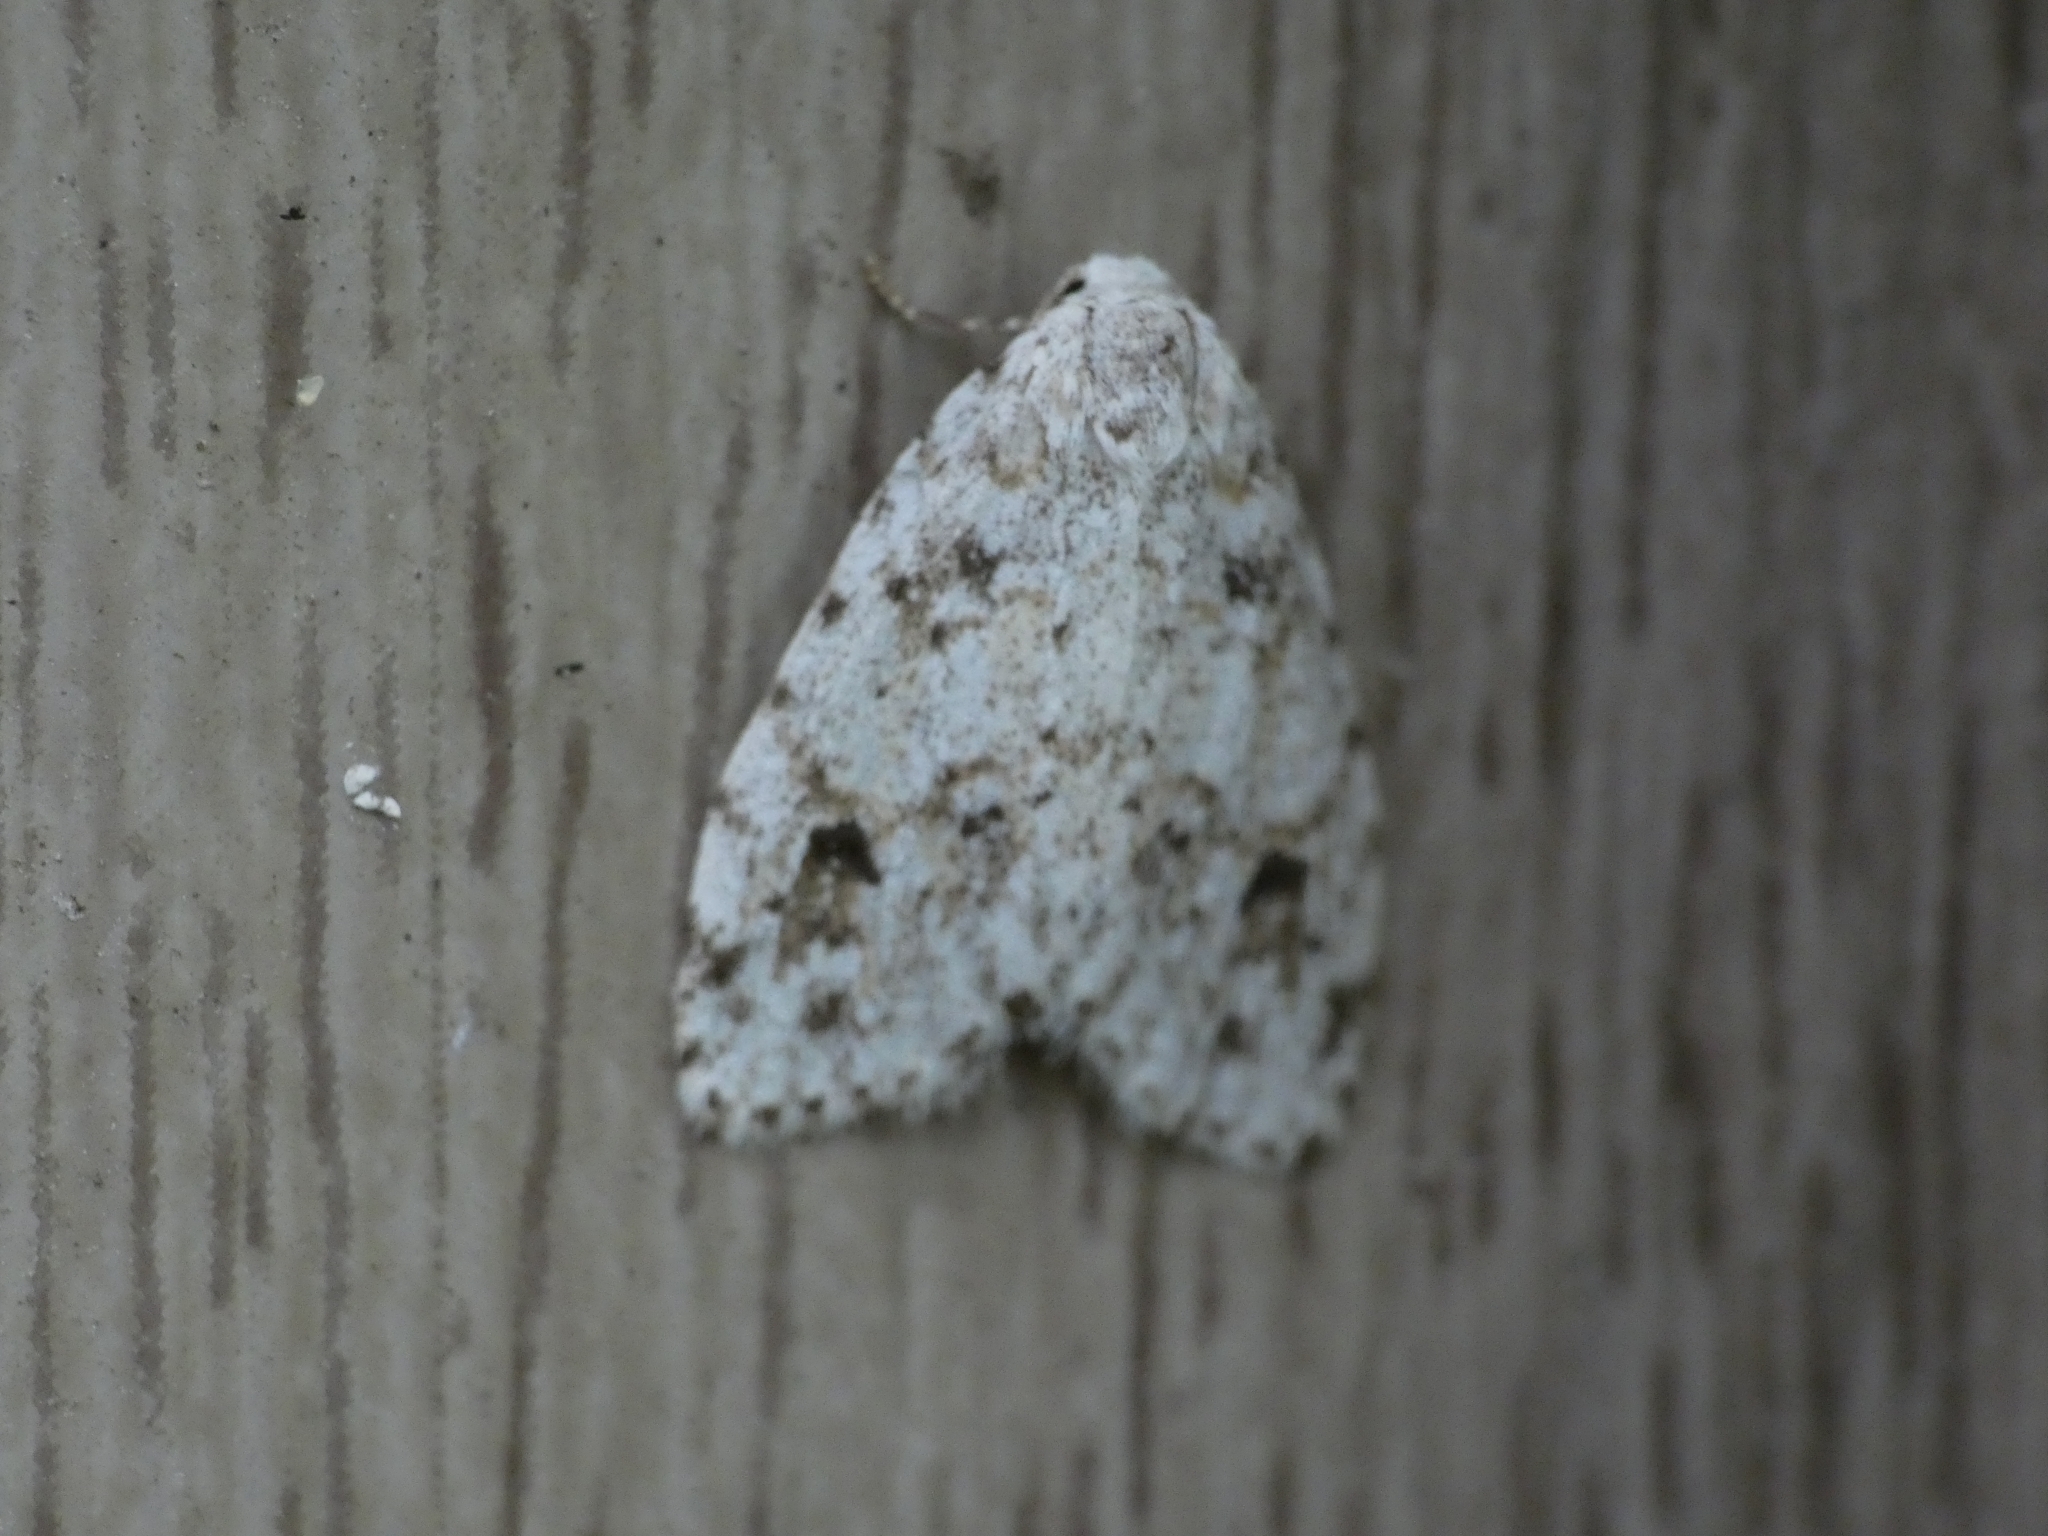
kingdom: Animalia
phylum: Arthropoda
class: Insecta
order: Lepidoptera
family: Erebidae
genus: Clemensia
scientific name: Clemensia albata
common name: Little white lichen moth
